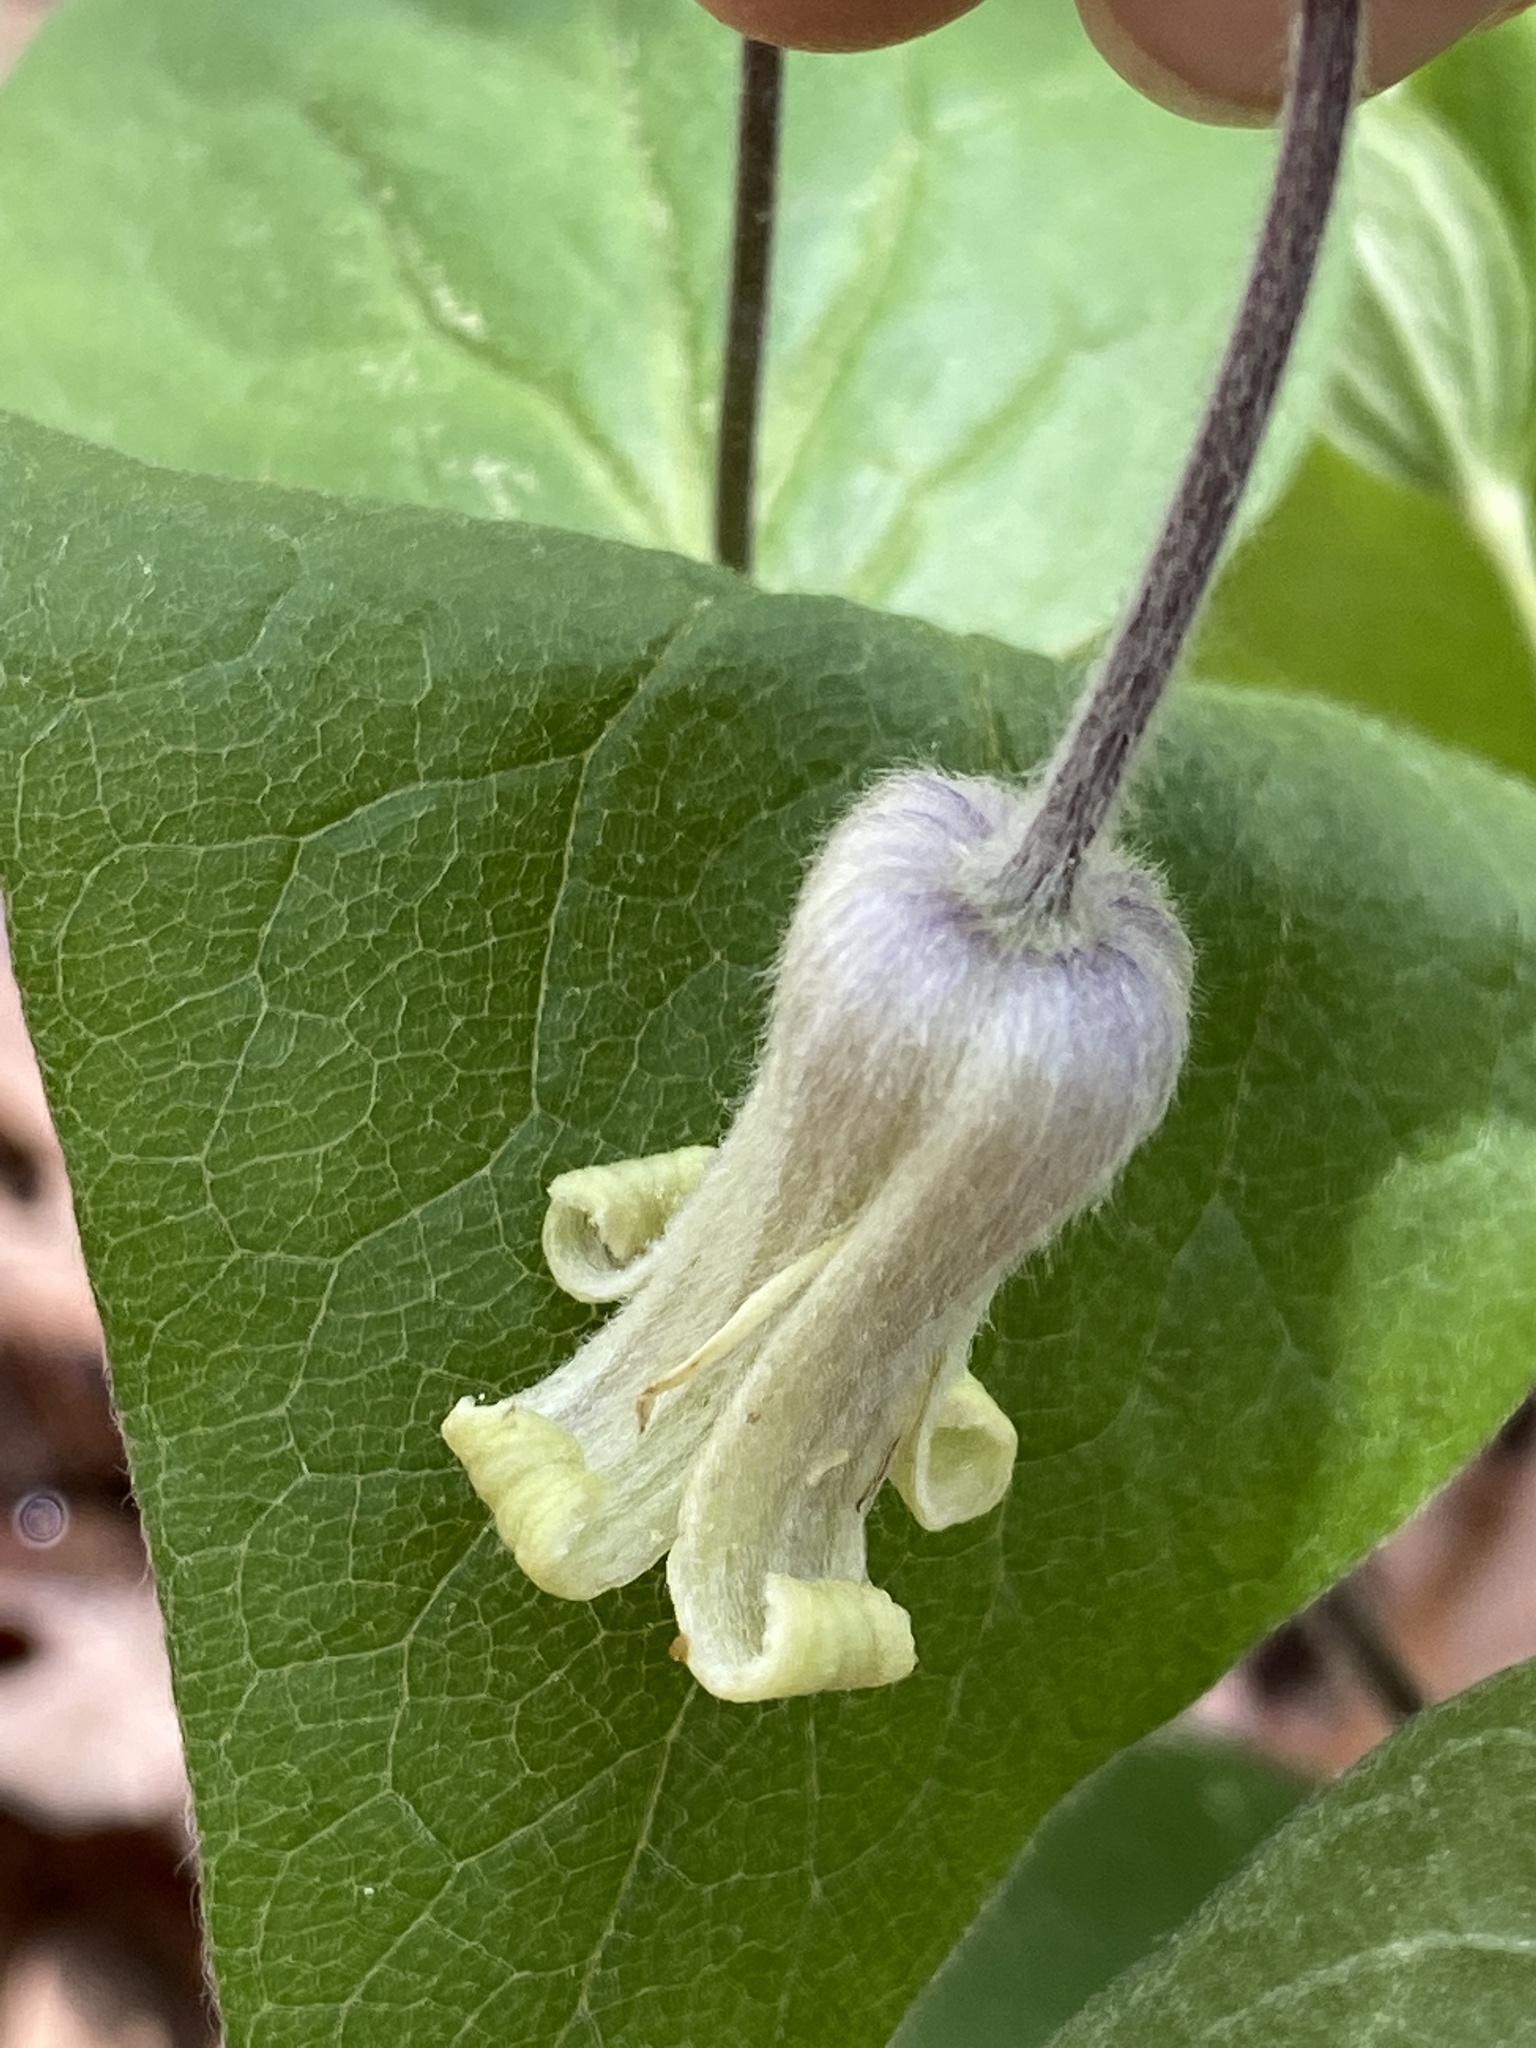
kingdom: Plantae
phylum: Tracheophyta
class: Magnoliopsida
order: Ranunculales
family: Ranunculaceae
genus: Clematis
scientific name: Clematis ochroleuca
